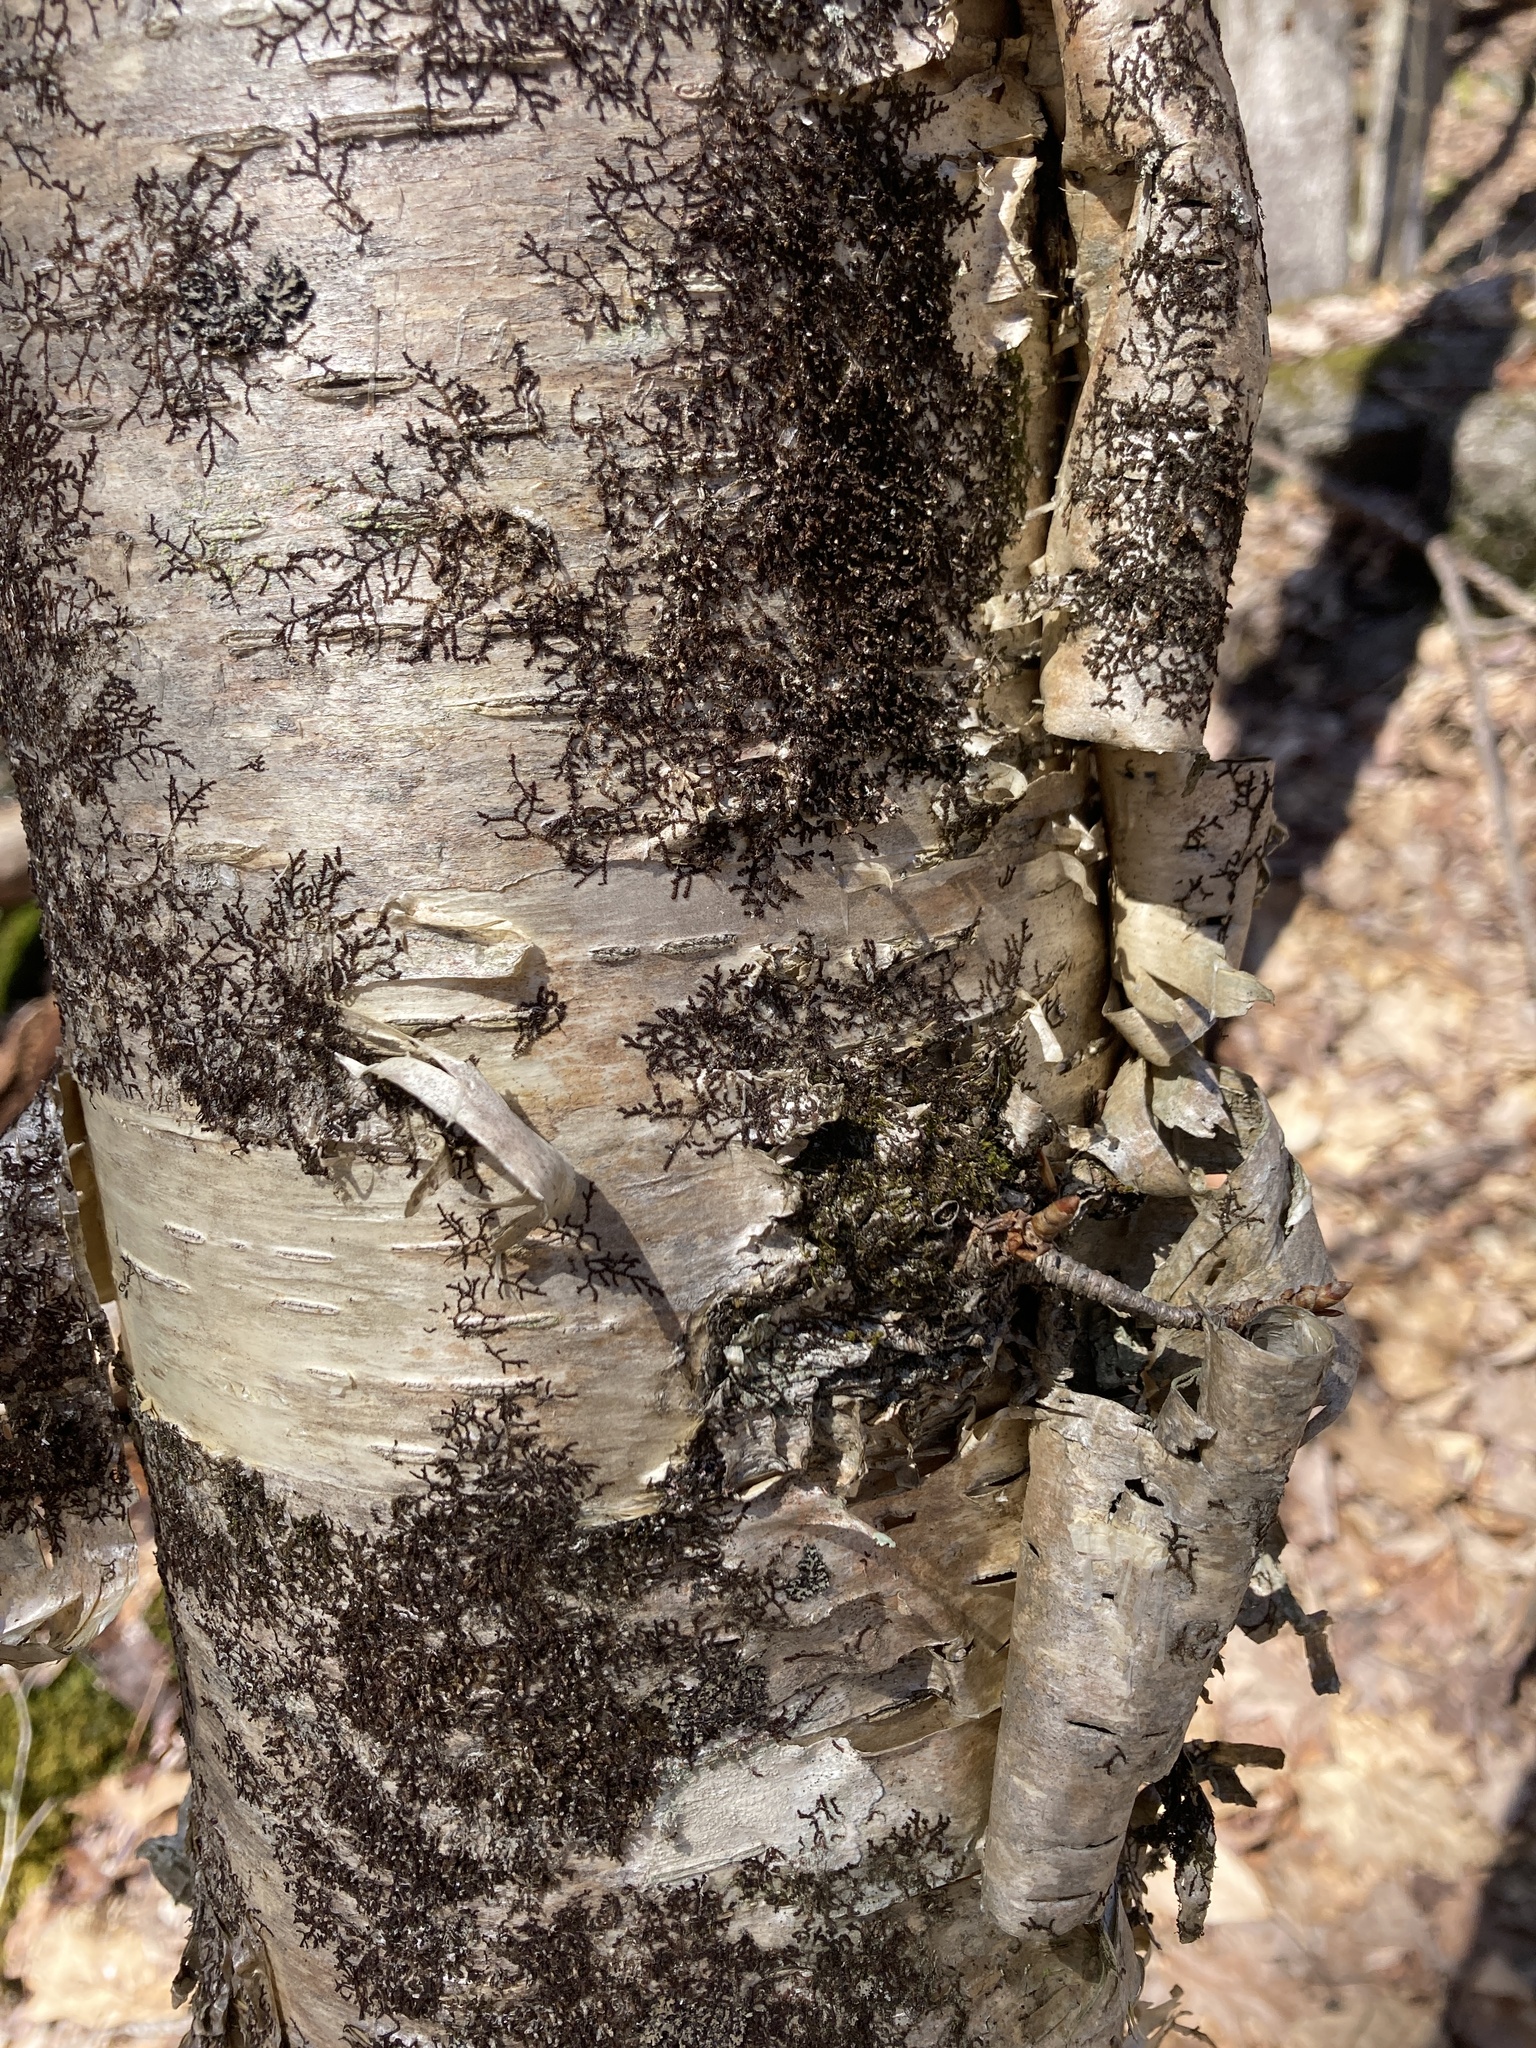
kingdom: Plantae
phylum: Tracheophyta
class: Magnoliopsida
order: Fagales
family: Betulaceae
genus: Betula
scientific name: Betula alleghaniensis
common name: Yellow birch
